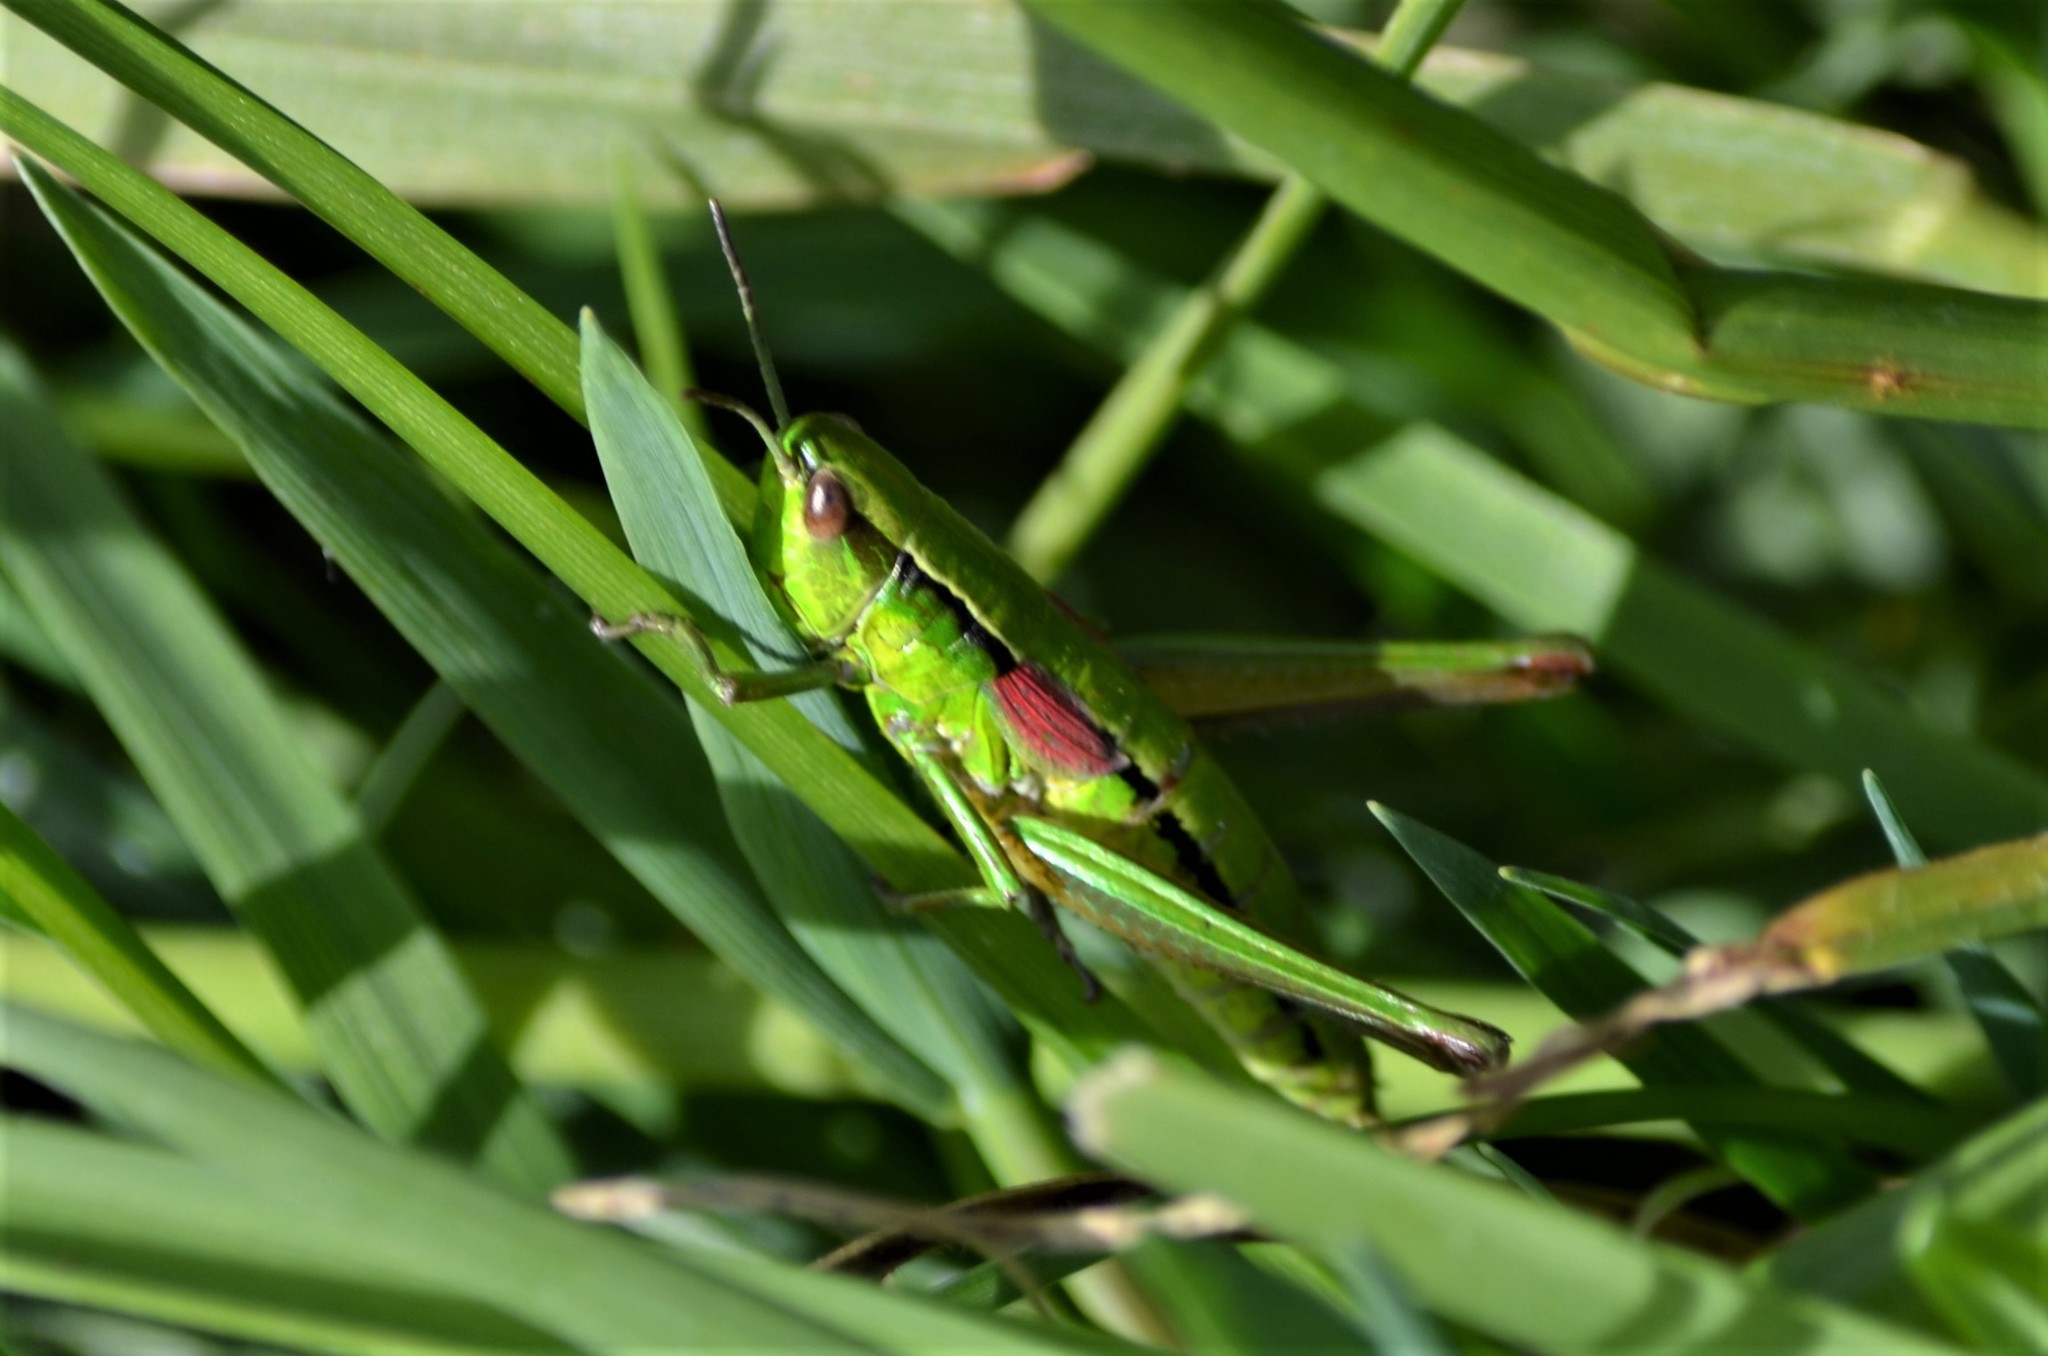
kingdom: Animalia
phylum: Arthropoda
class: Insecta
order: Orthoptera
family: Acrididae
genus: Euthystira
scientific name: Euthystira brachyptera
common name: Small gold grasshopper
